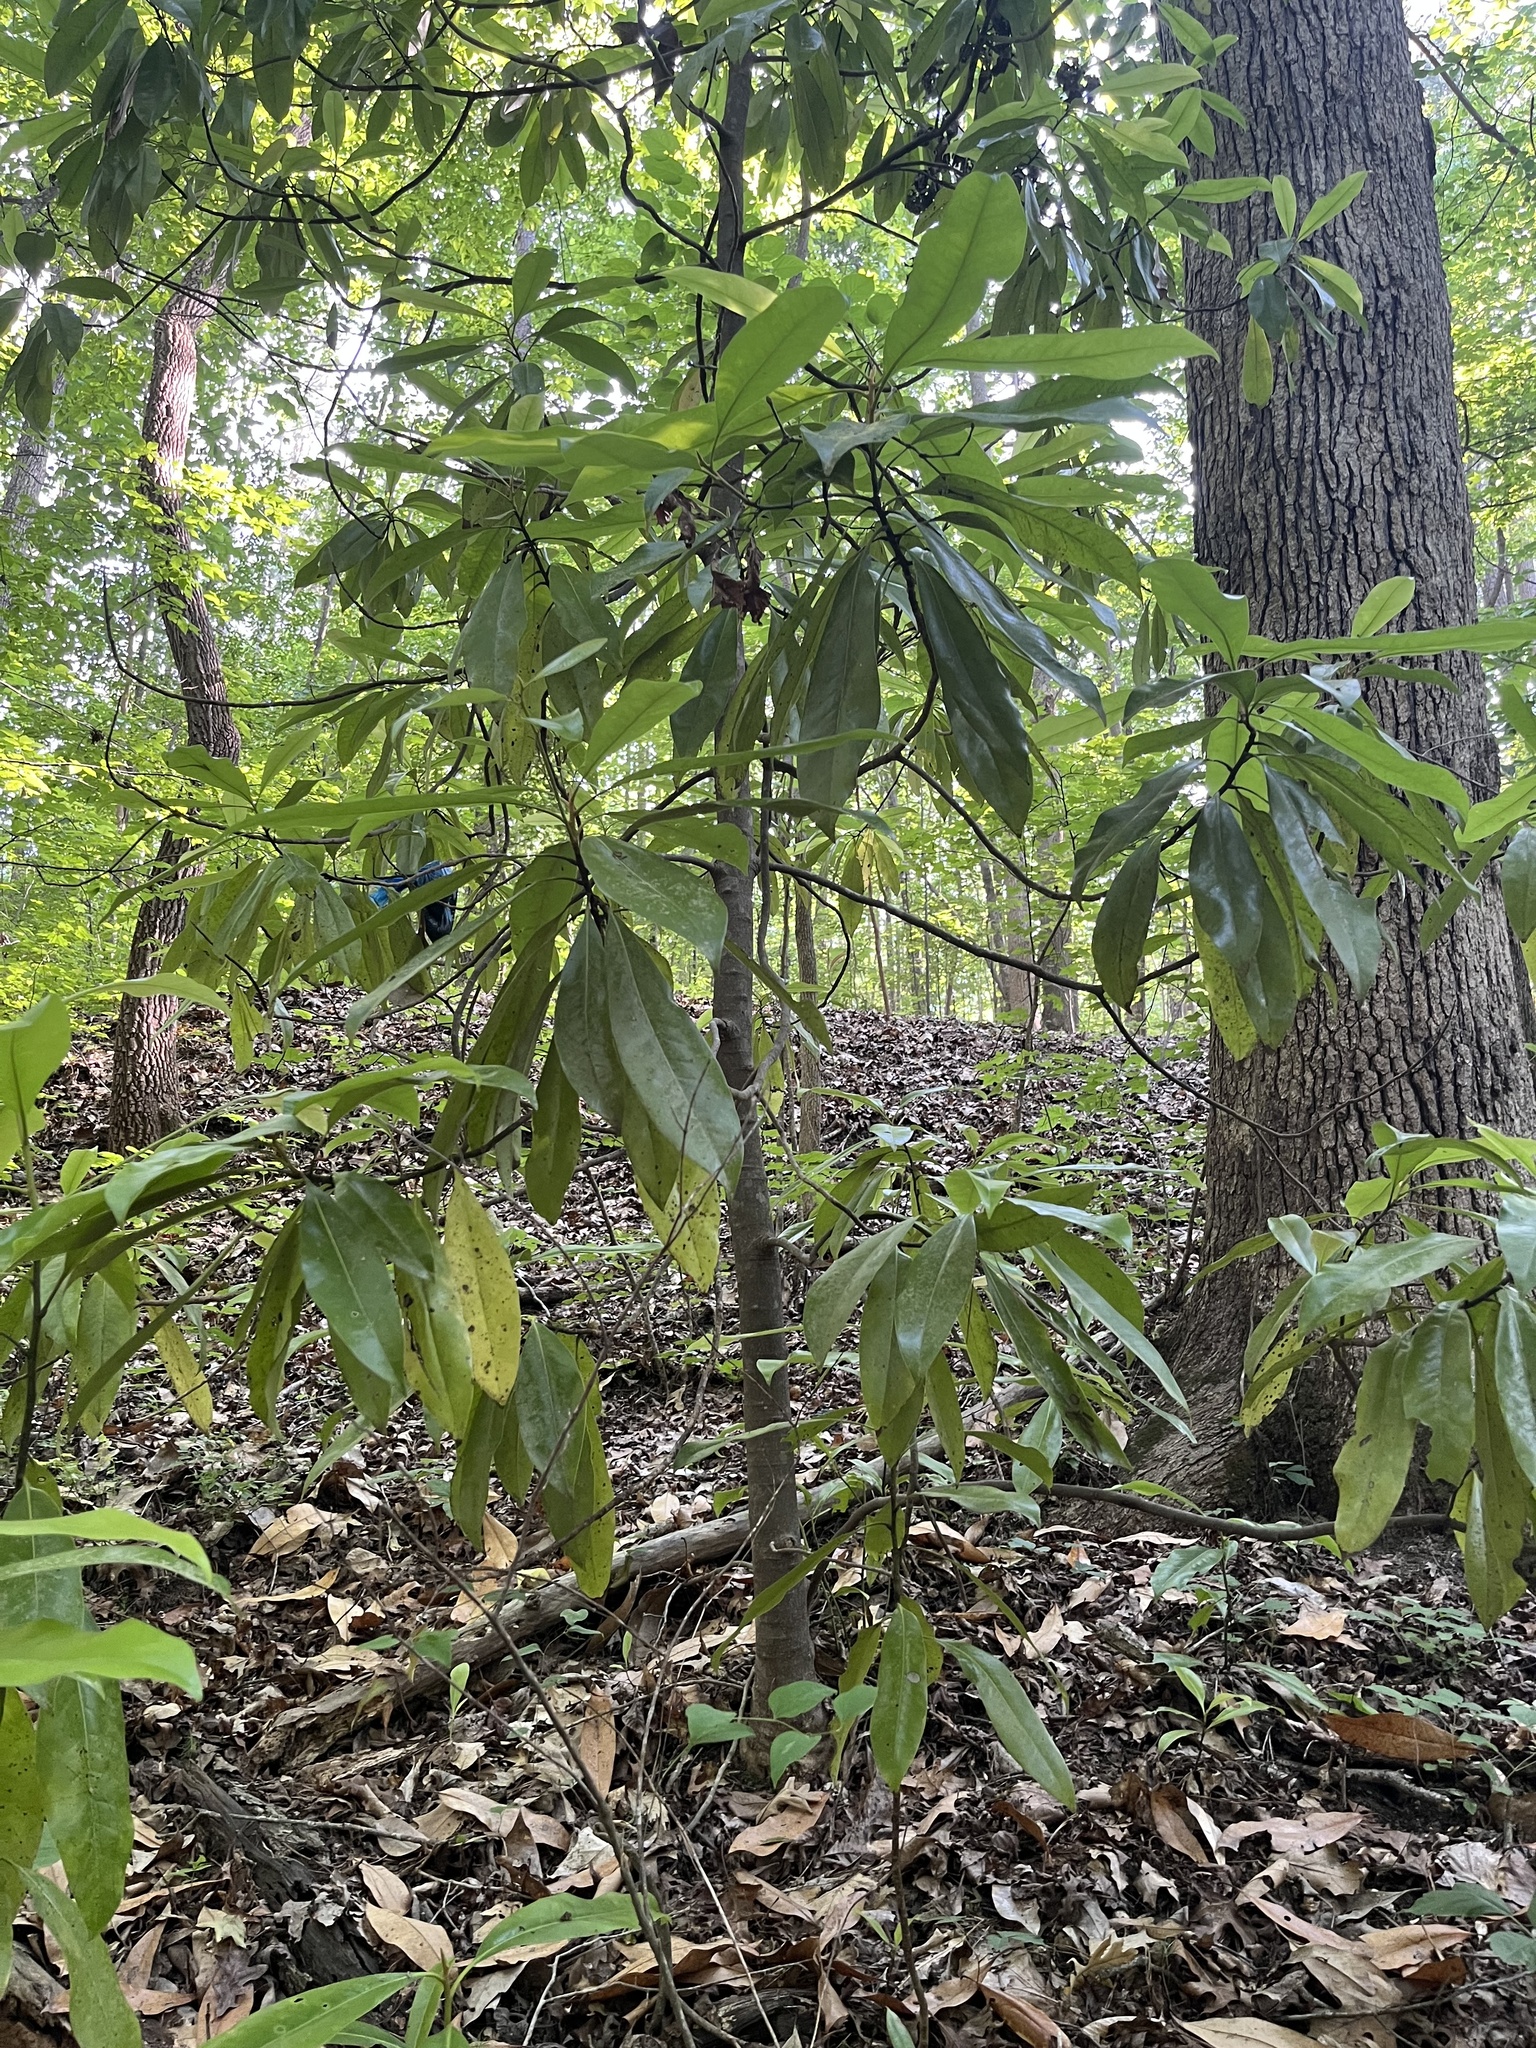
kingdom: Plantae
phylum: Tracheophyta
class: Magnoliopsida
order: Magnoliales
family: Magnoliaceae
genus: Magnolia
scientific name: Magnolia grandiflora
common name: Southern magnolia
